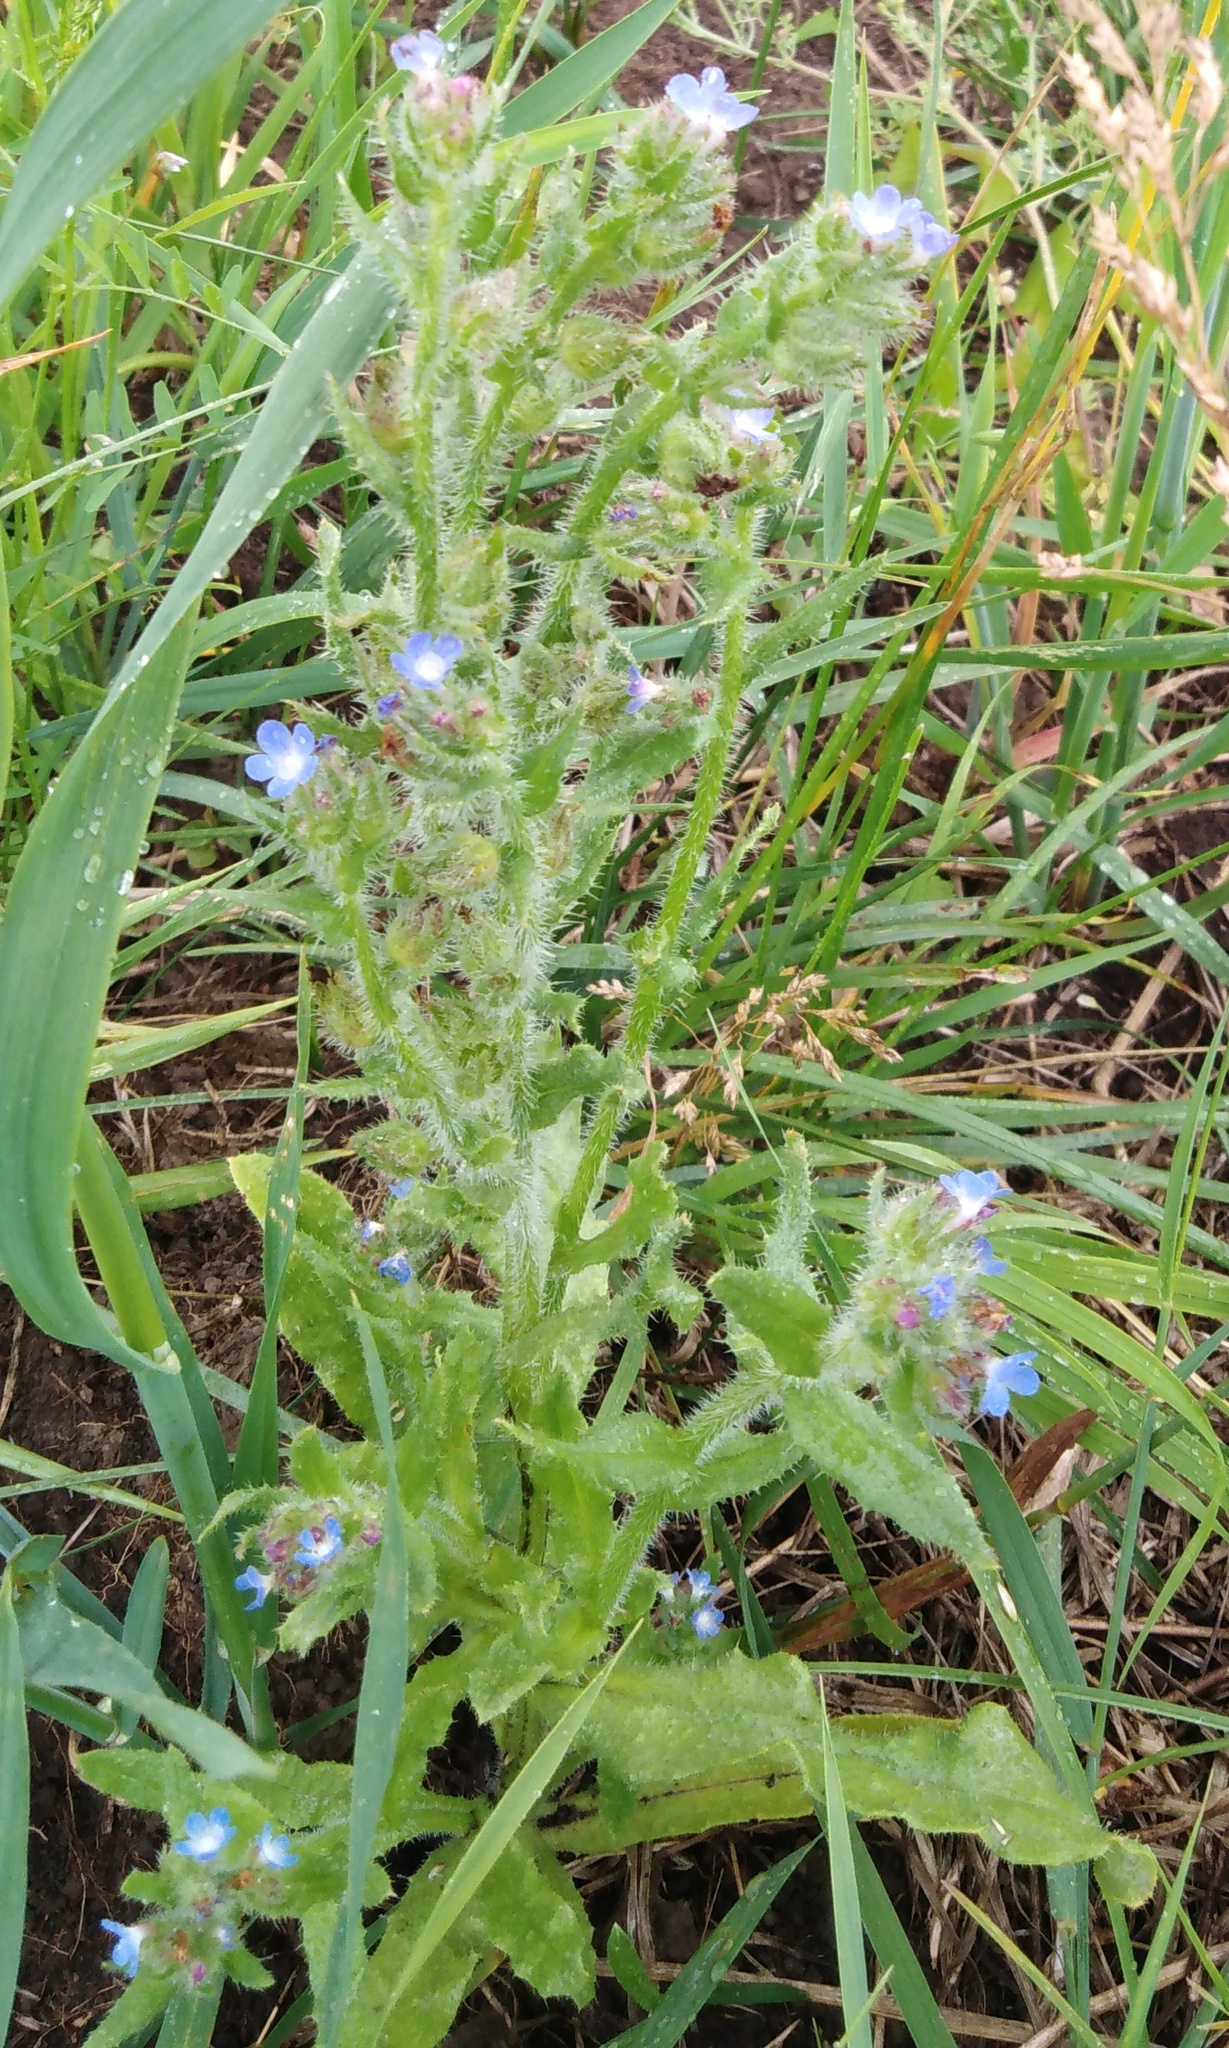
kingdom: Plantae
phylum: Tracheophyta
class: Magnoliopsida
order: Boraginales
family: Boraginaceae
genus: Lycopsis
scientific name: Lycopsis arvensis
